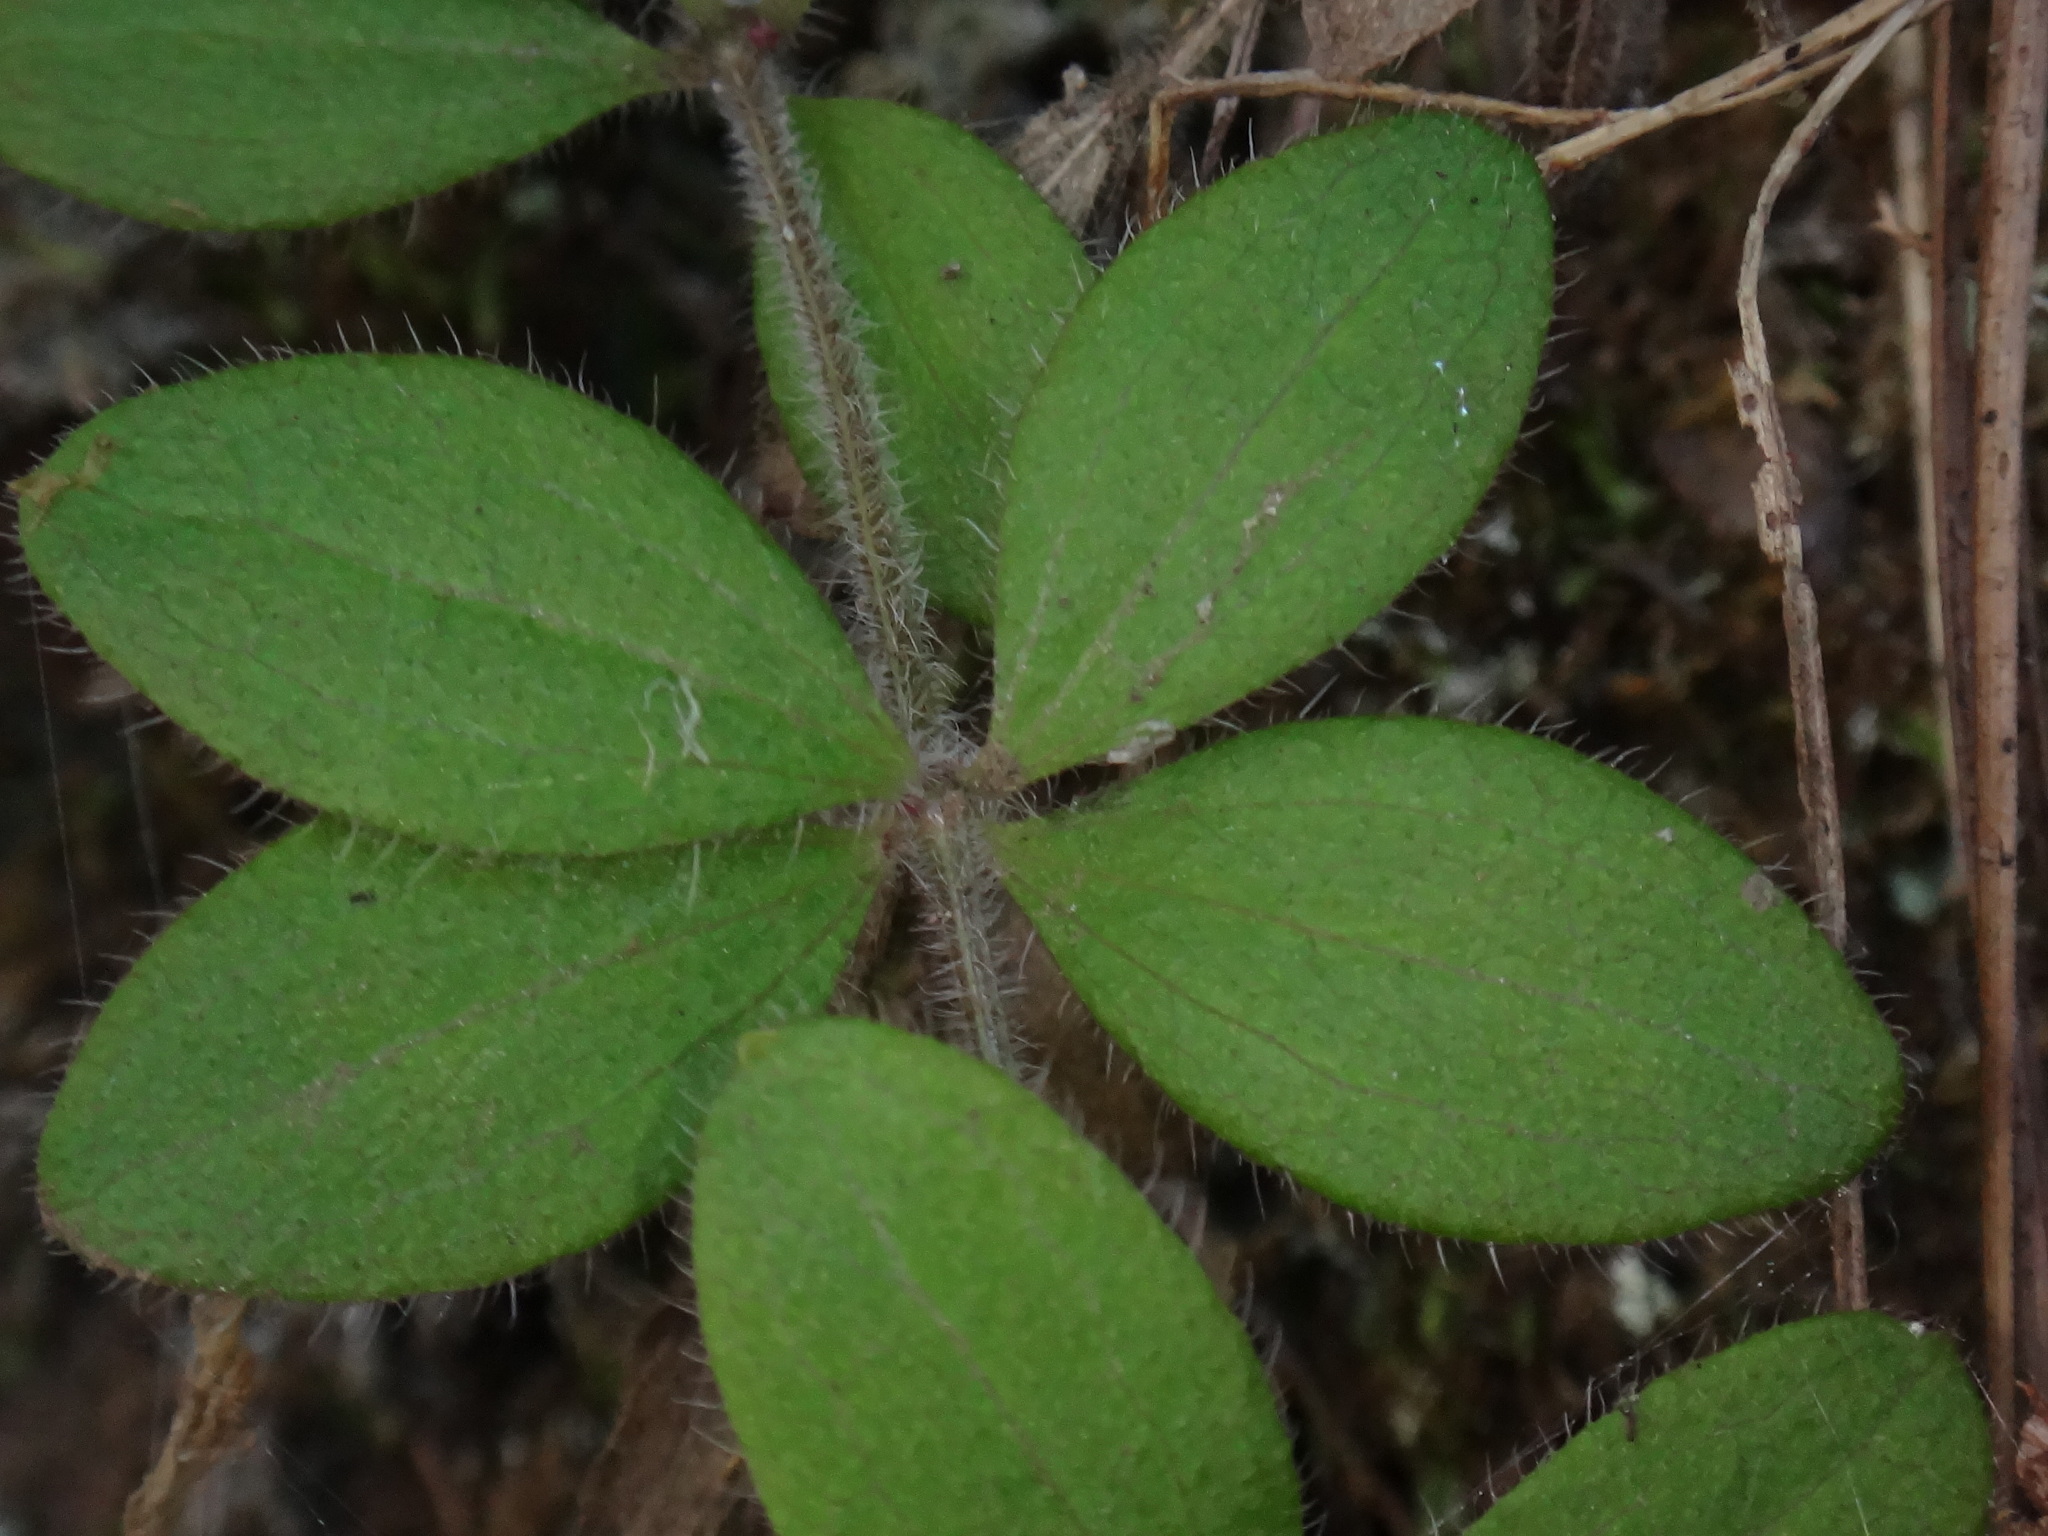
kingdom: Plantae
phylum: Tracheophyta
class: Magnoliopsida
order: Gentianales
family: Rubiaceae
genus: Galium
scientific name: Galium scabrum
